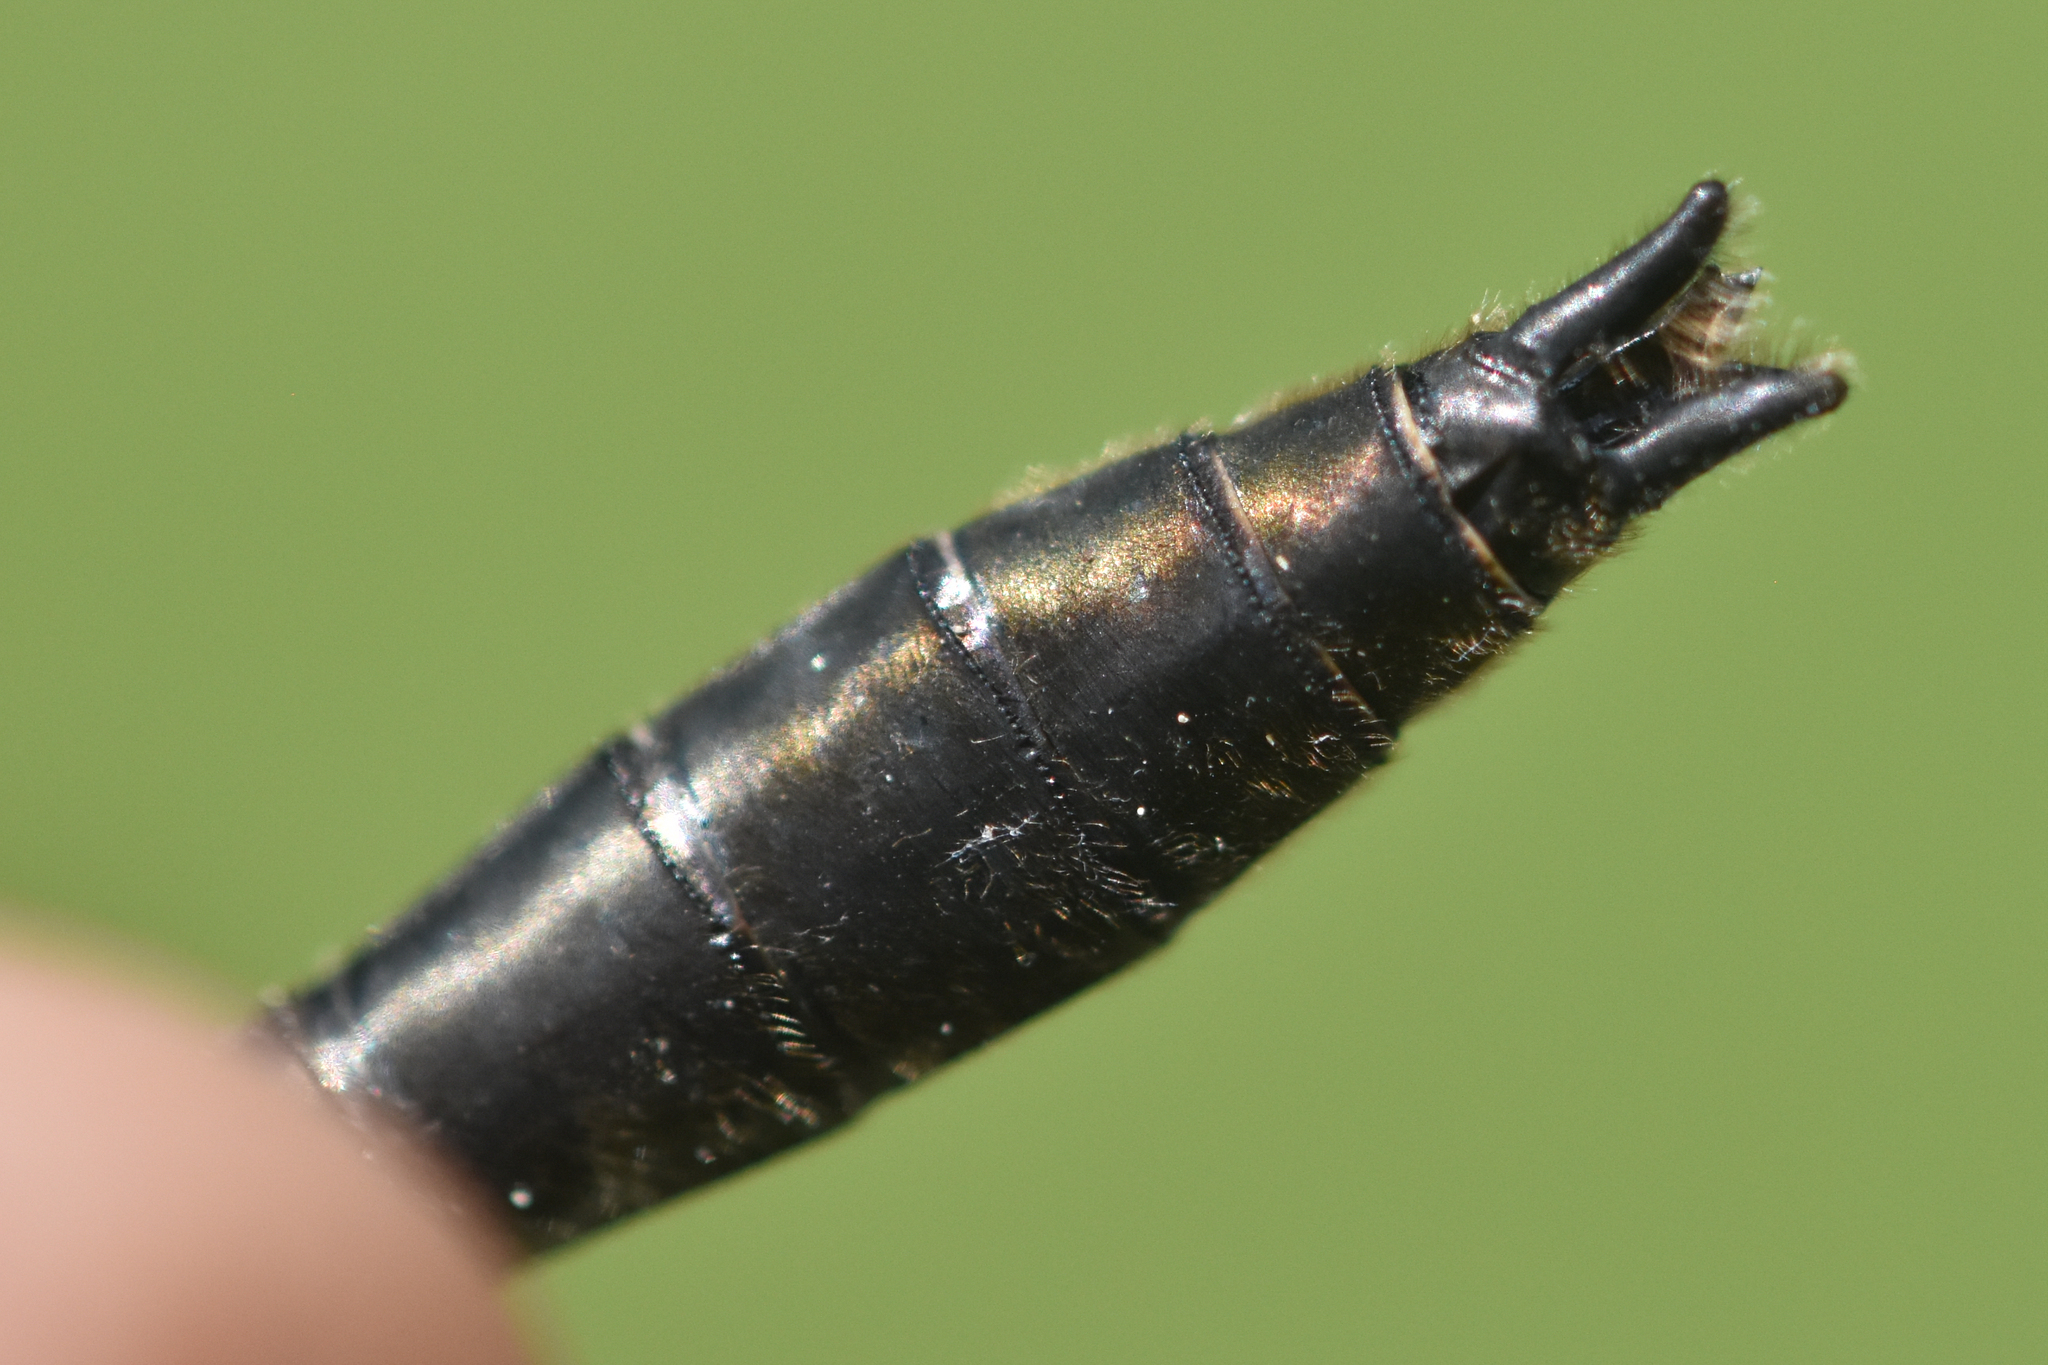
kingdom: Animalia
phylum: Arthropoda
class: Insecta
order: Odonata
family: Corduliidae
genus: Cordulia
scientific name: Cordulia shurtleffii
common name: American emerald
